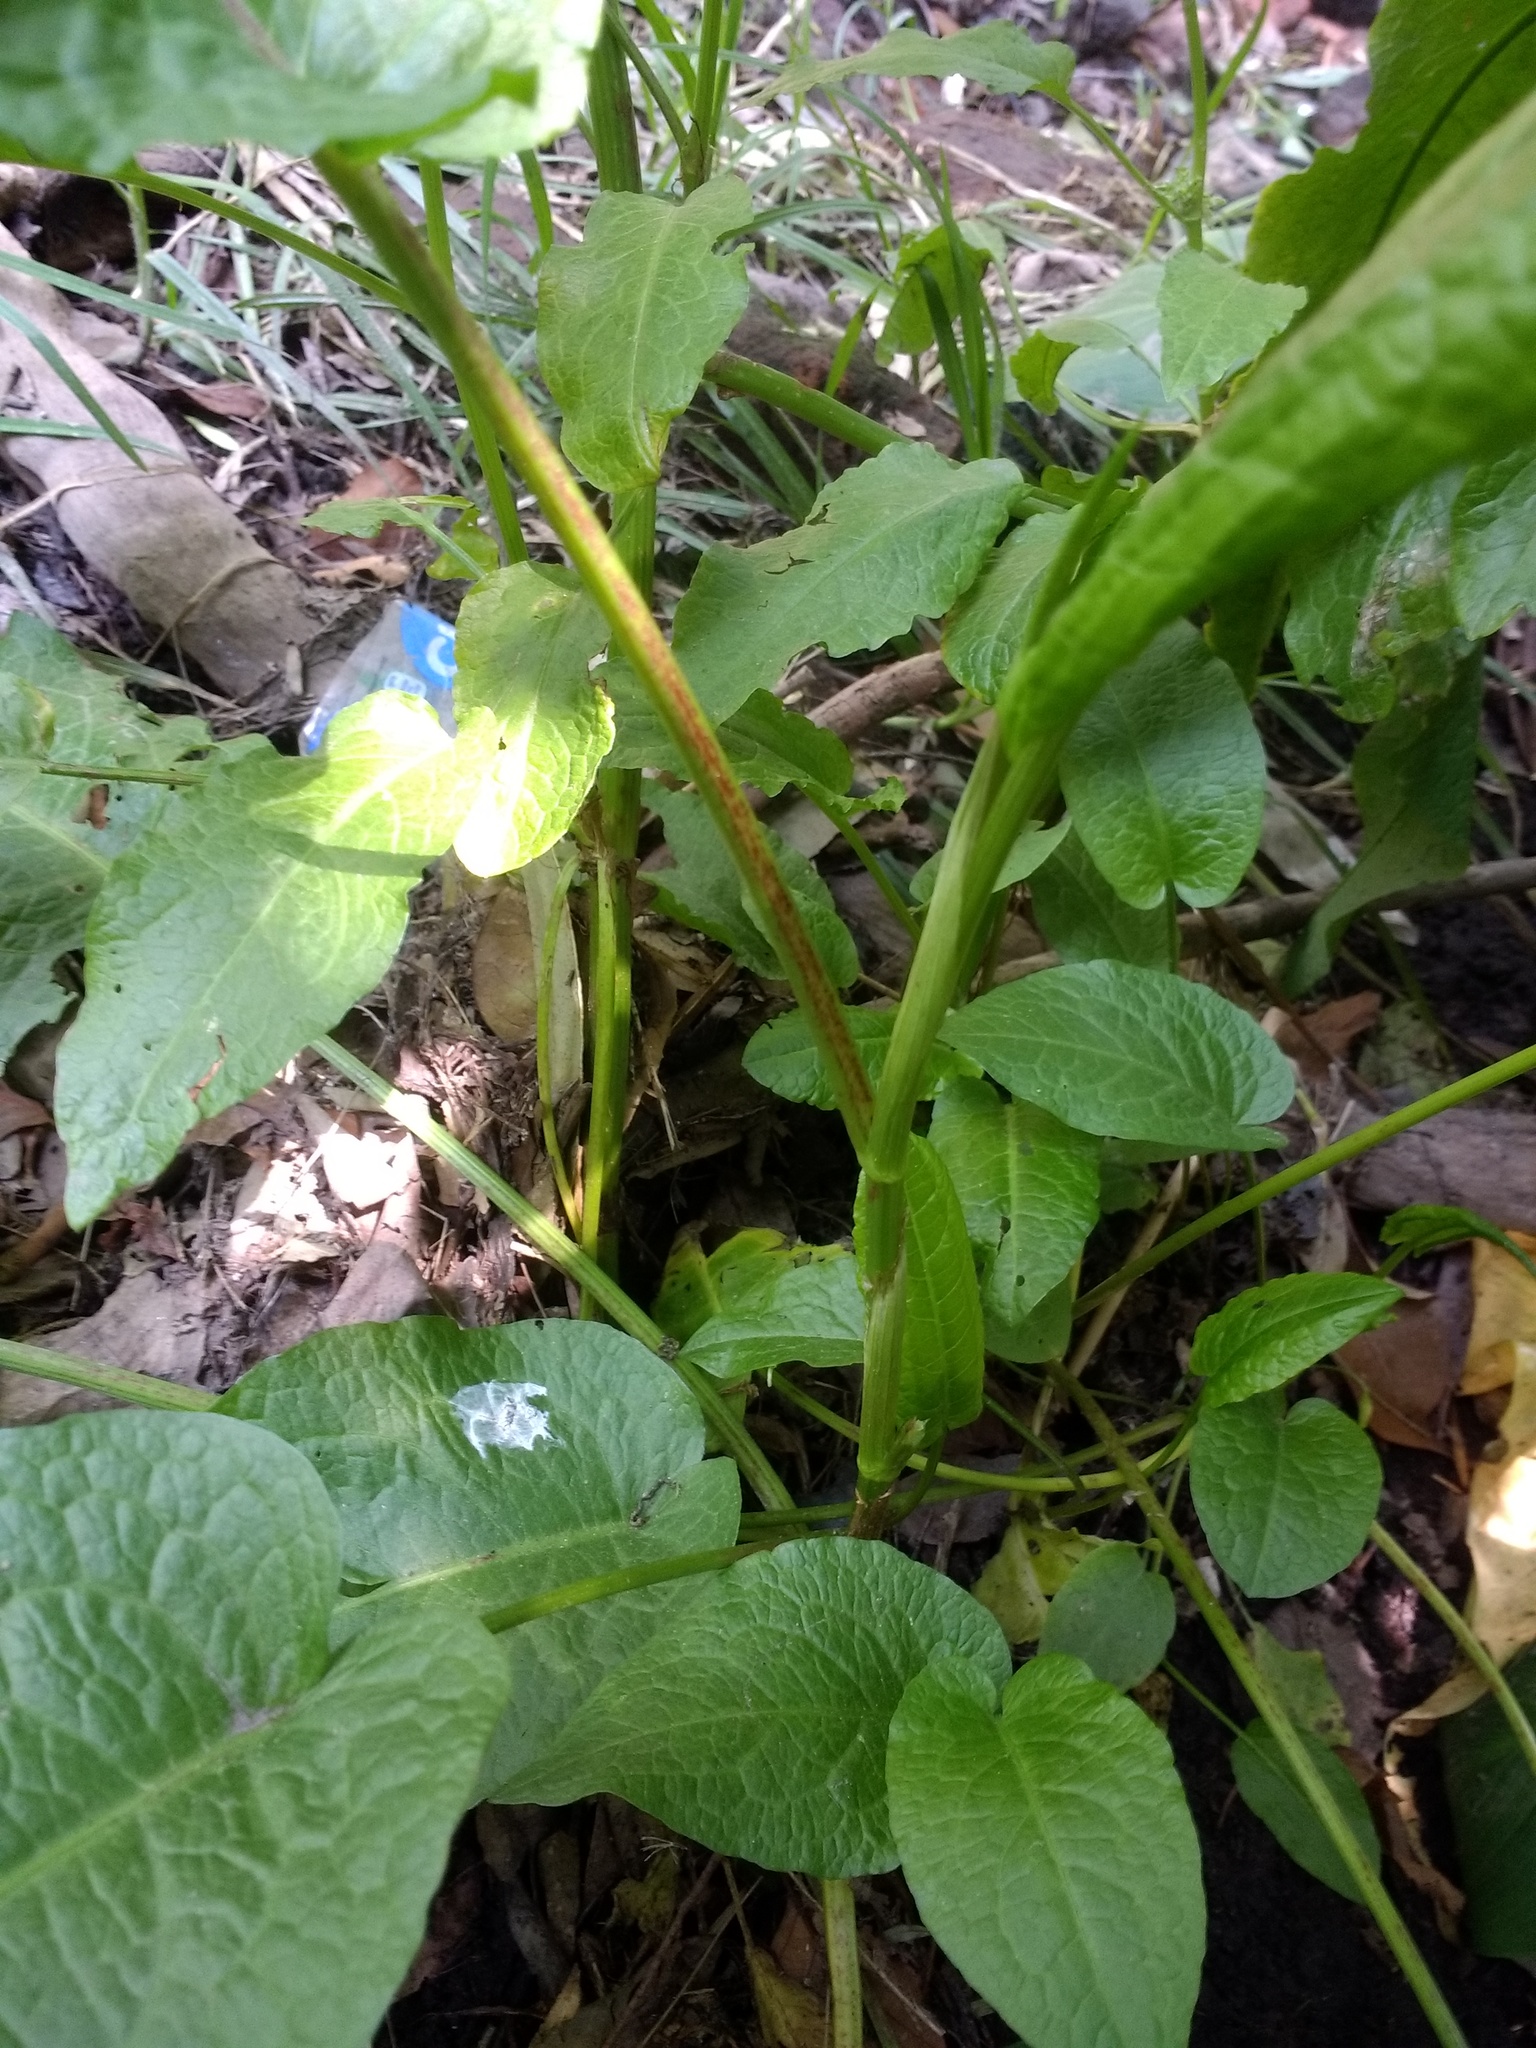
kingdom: Plantae
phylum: Tracheophyta
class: Magnoliopsida
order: Caryophyllales
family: Polygonaceae
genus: Rumex
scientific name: Rumex obtusifolius
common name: Bitter dock
